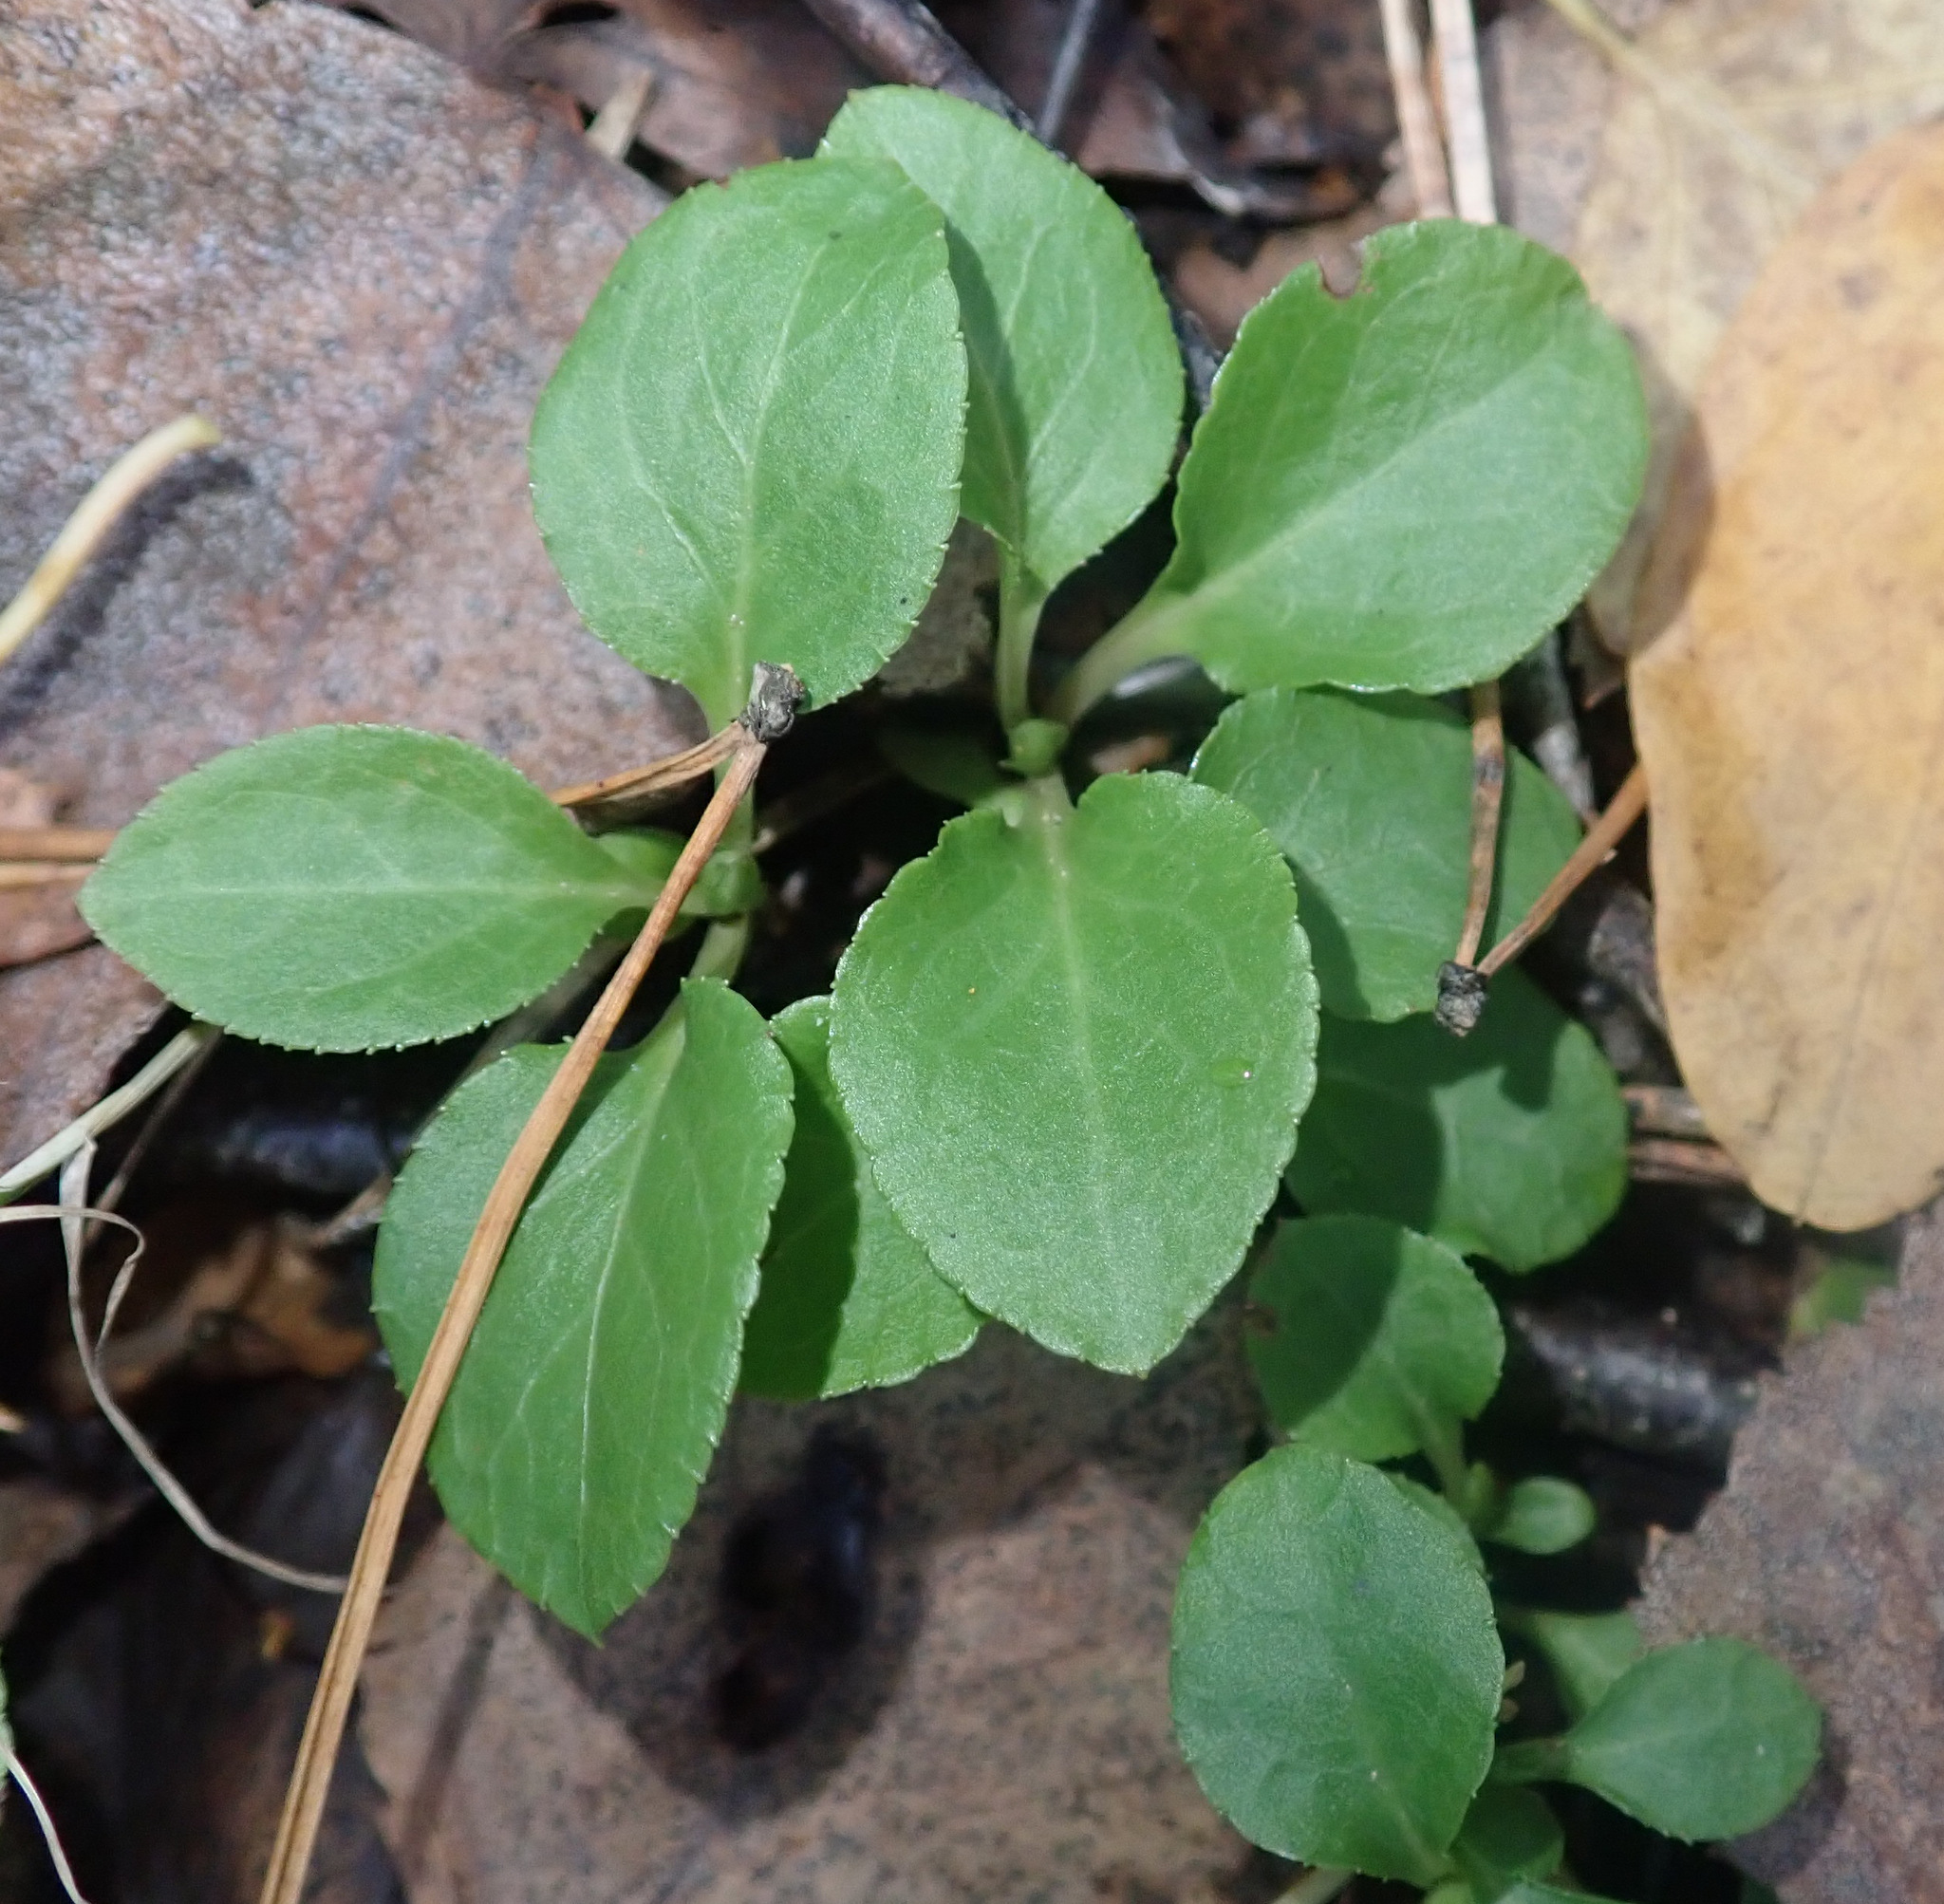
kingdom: Plantae
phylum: Tracheophyta
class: Magnoliopsida
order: Ericales
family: Ericaceae
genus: Pyrola
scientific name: Pyrola minor
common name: Common wintergreen
